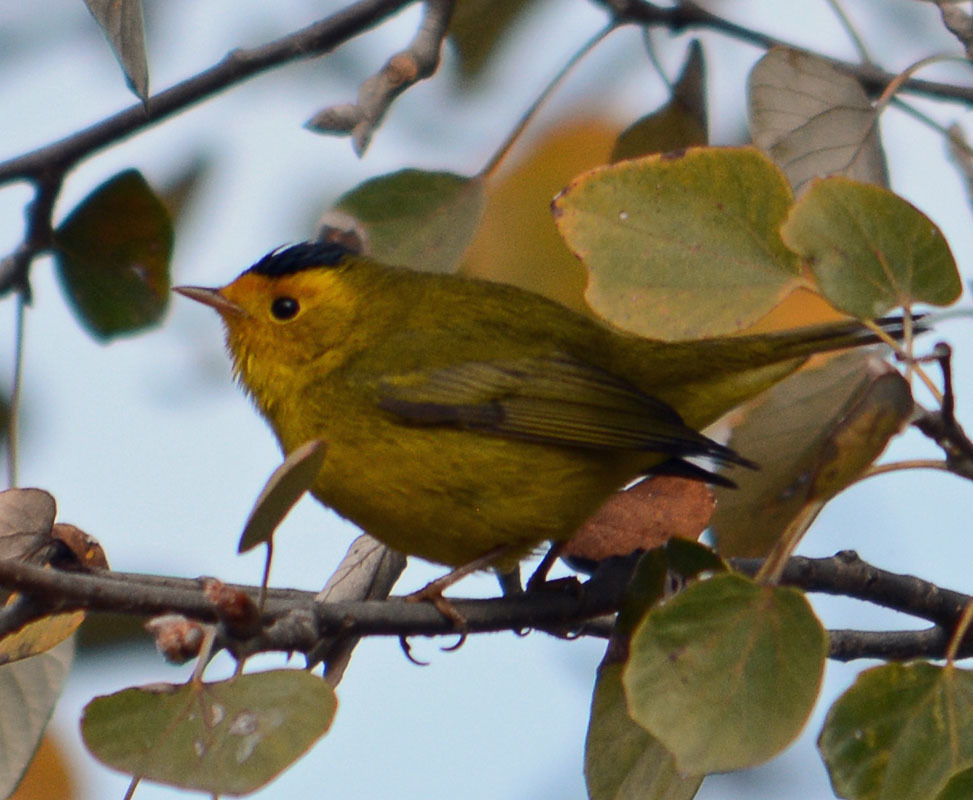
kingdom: Animalia
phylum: Chordata
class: Aves
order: Passeriformes
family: Parulidae
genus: Cardellina
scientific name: Cardellina pusilla
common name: Wilson's warbler
